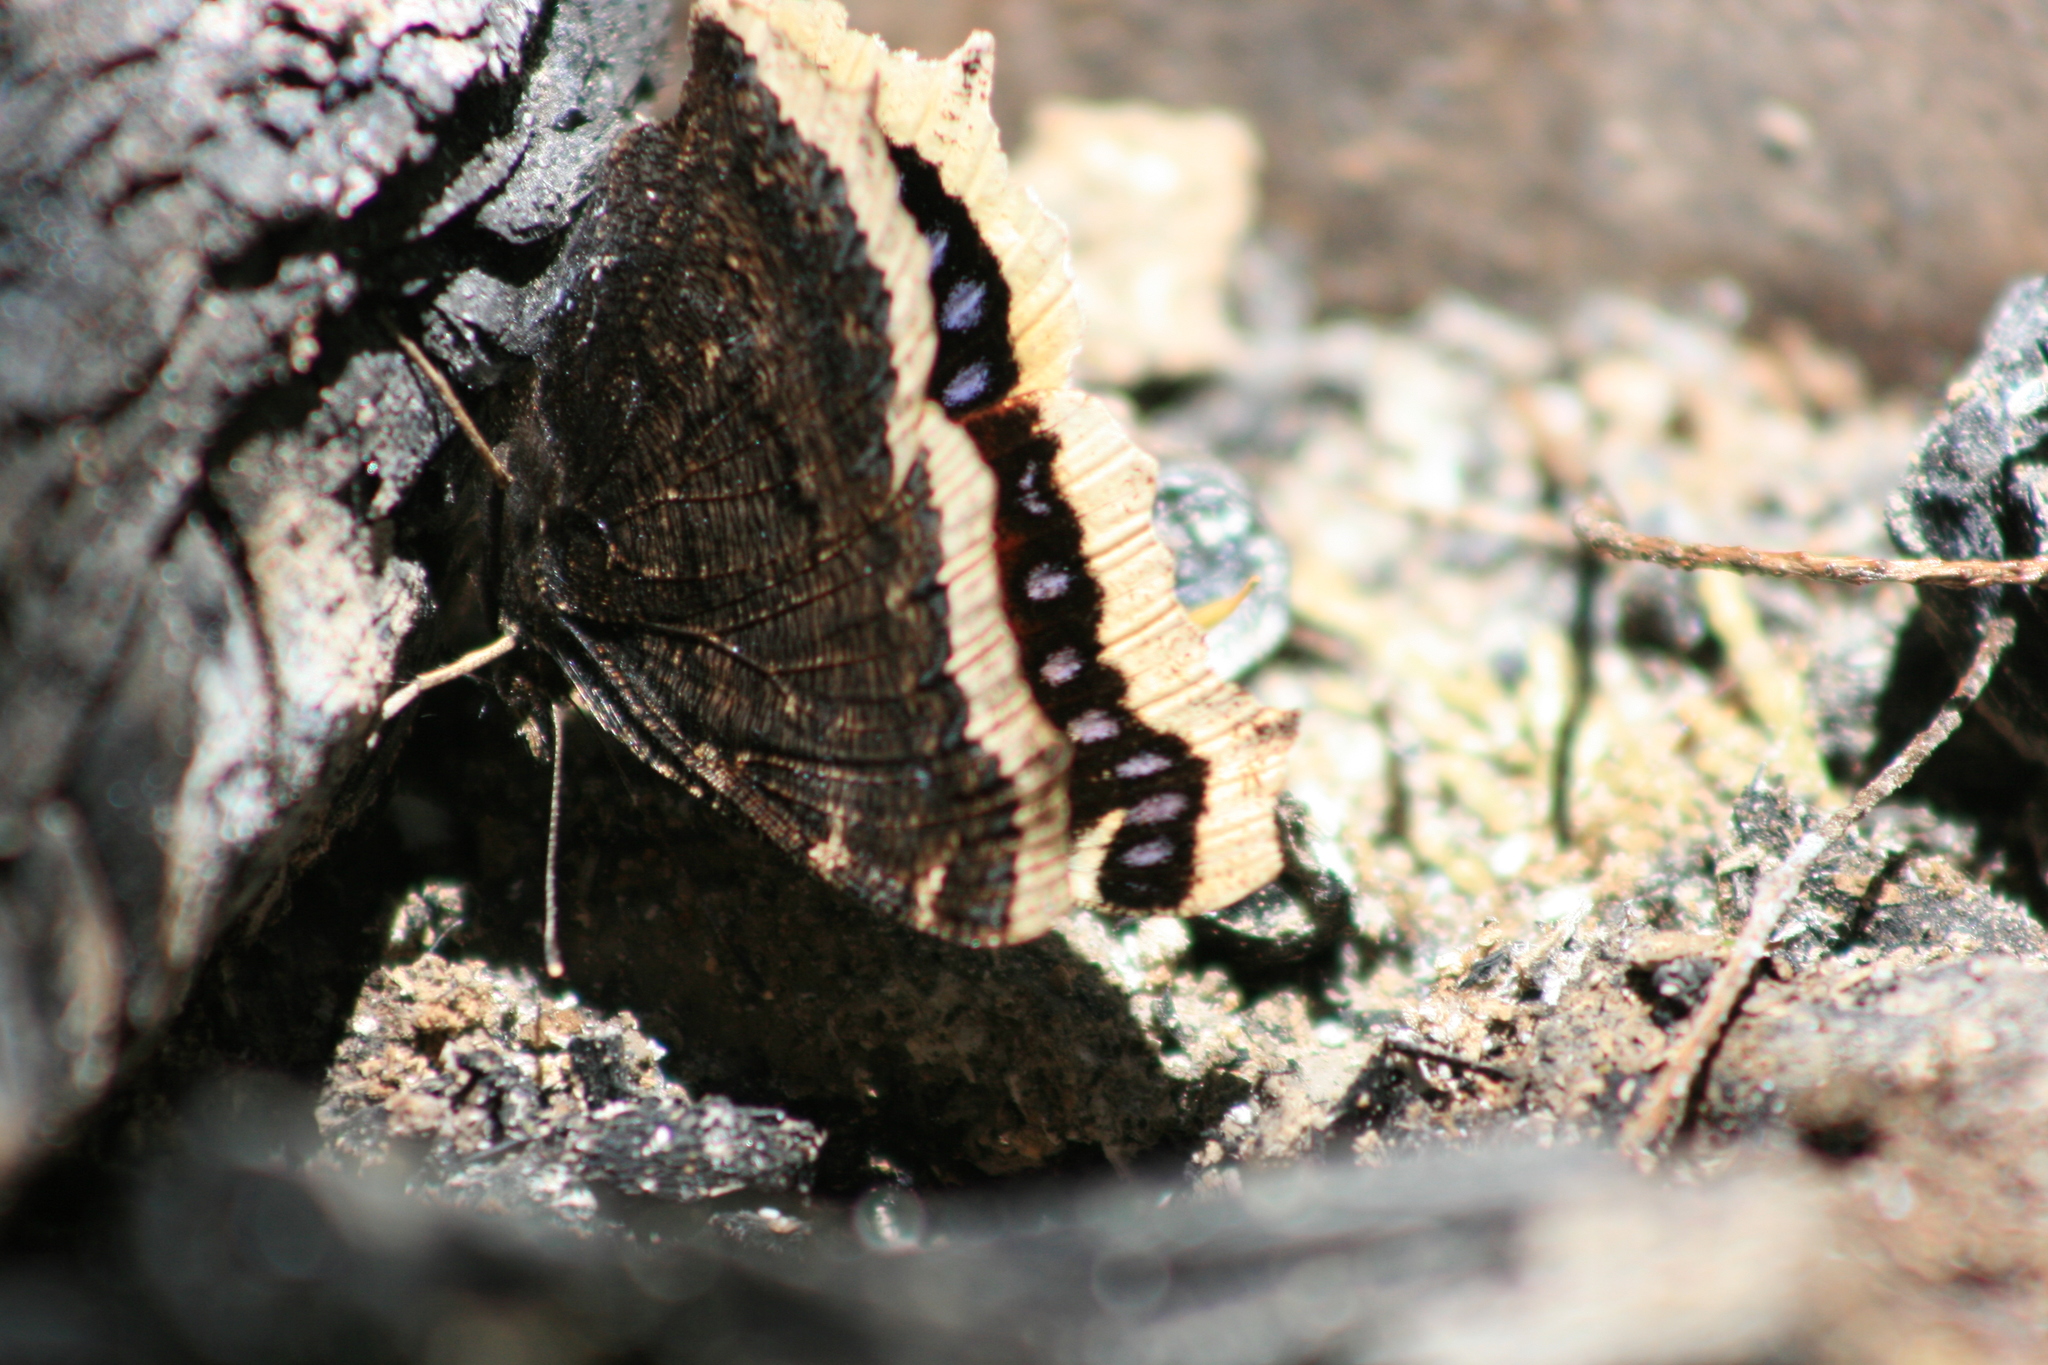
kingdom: Animalia
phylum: Arthropoda
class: Insecta
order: Lepidoptera
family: Nymphalidae
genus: Nymphalis
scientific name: Nymphalis antiopa
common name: Camberwell beauty
